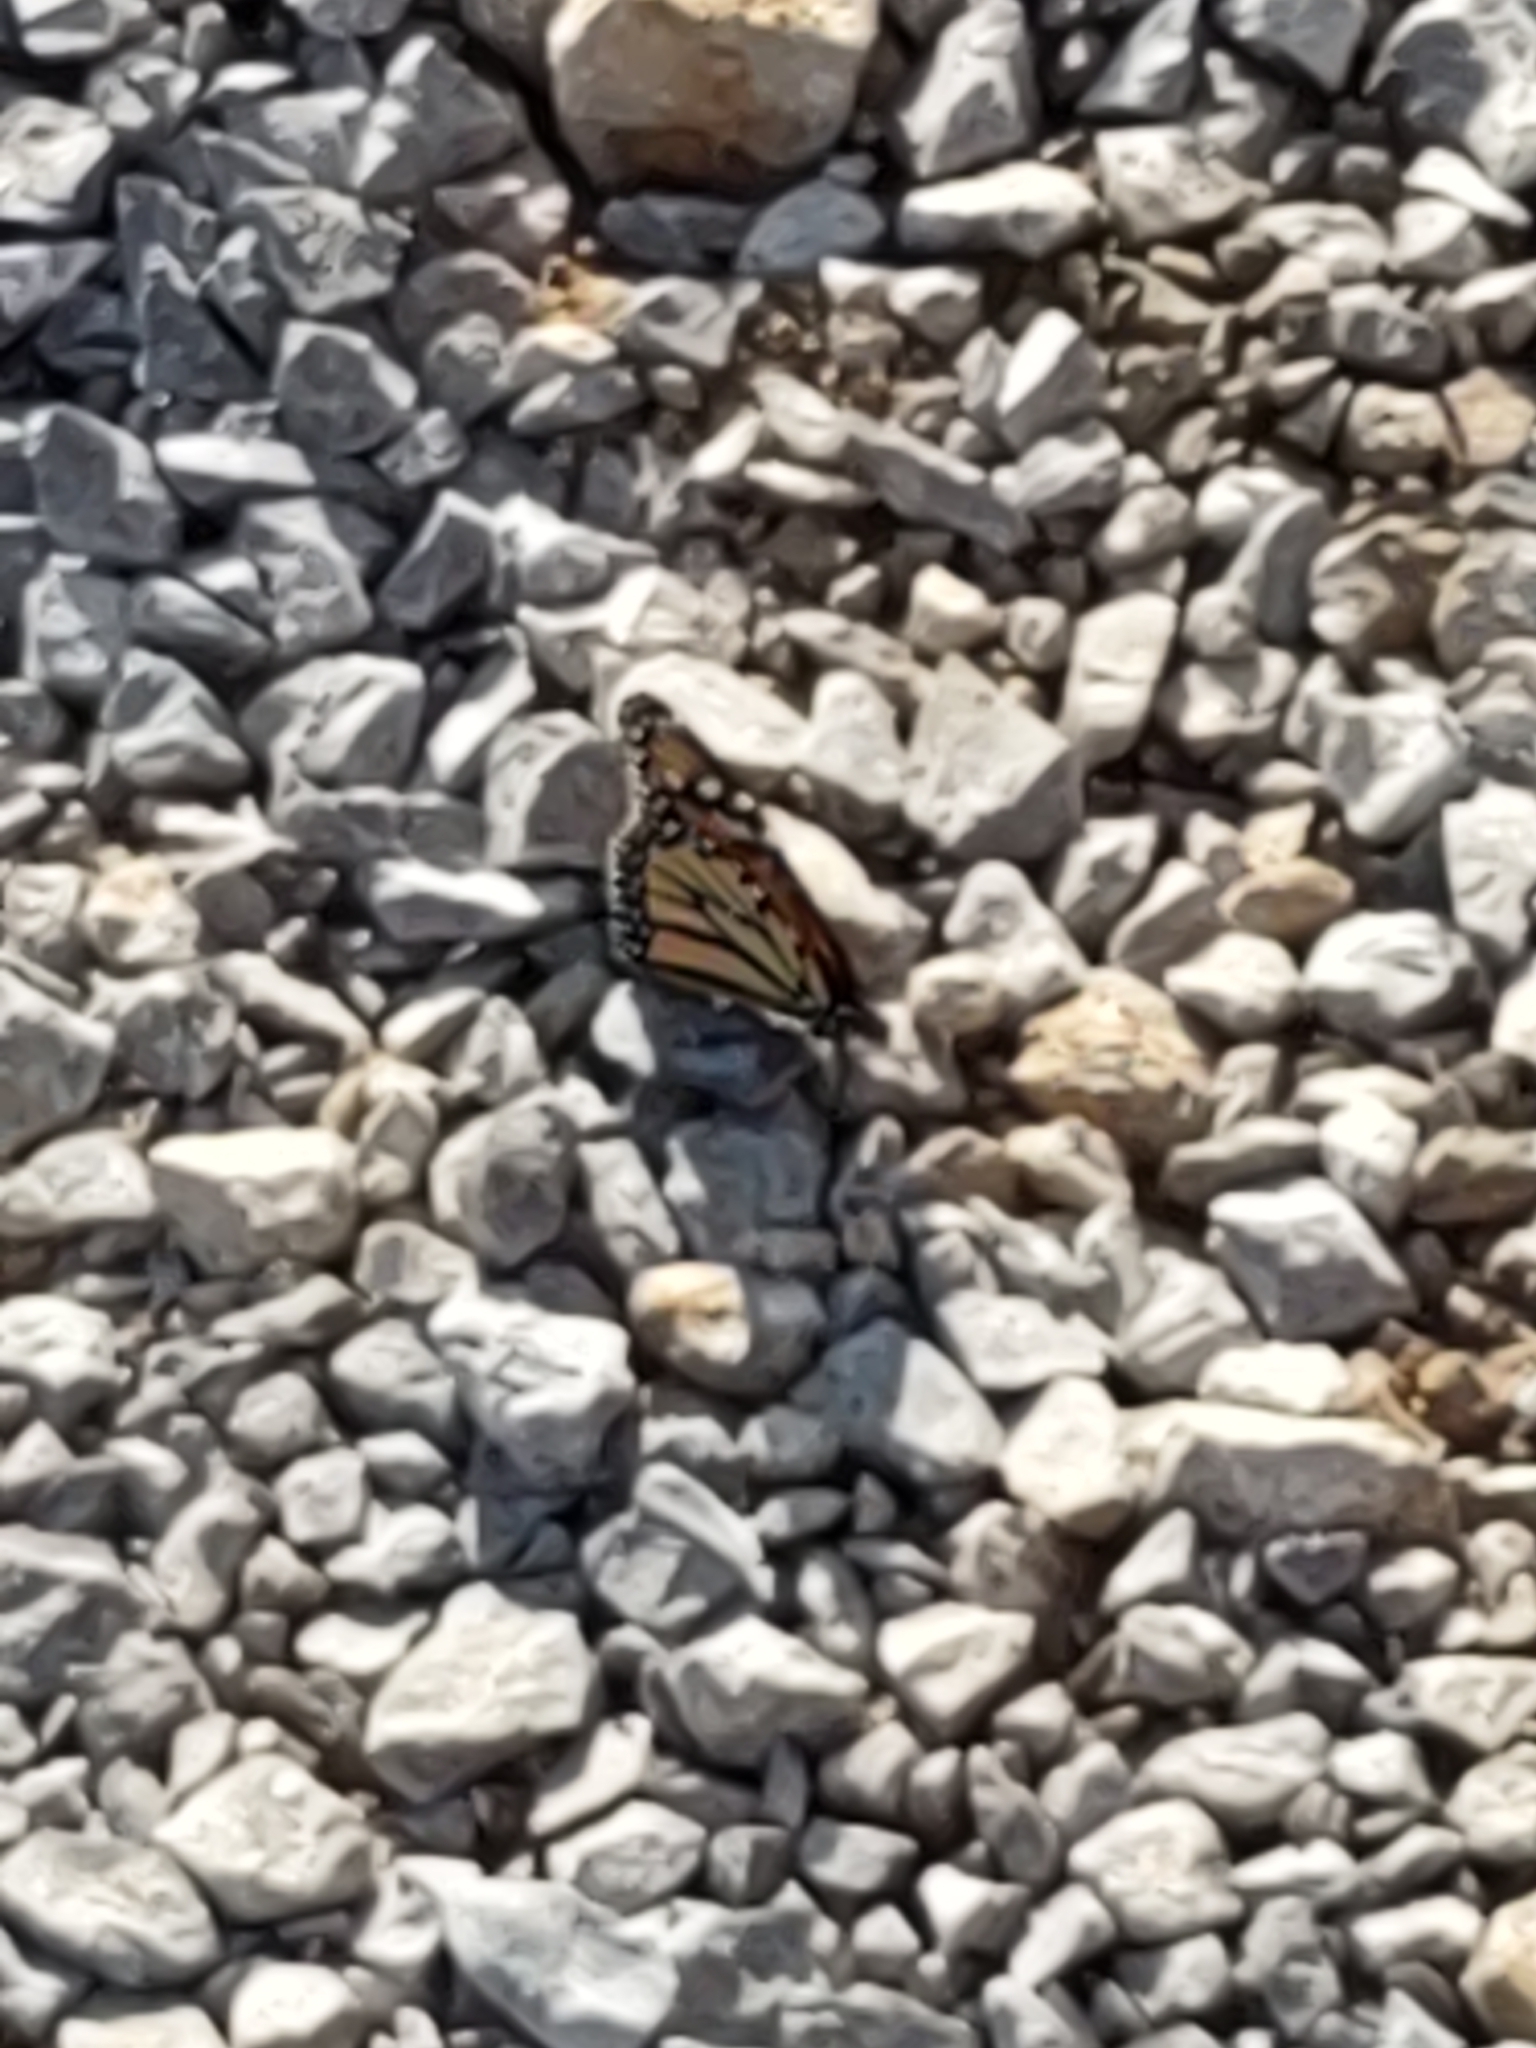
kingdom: Animalia
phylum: Arthropoda
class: Insecta
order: Lepidoptera
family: Nymphalidae
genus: Danaus
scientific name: Danaus plexippus
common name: Monarch
